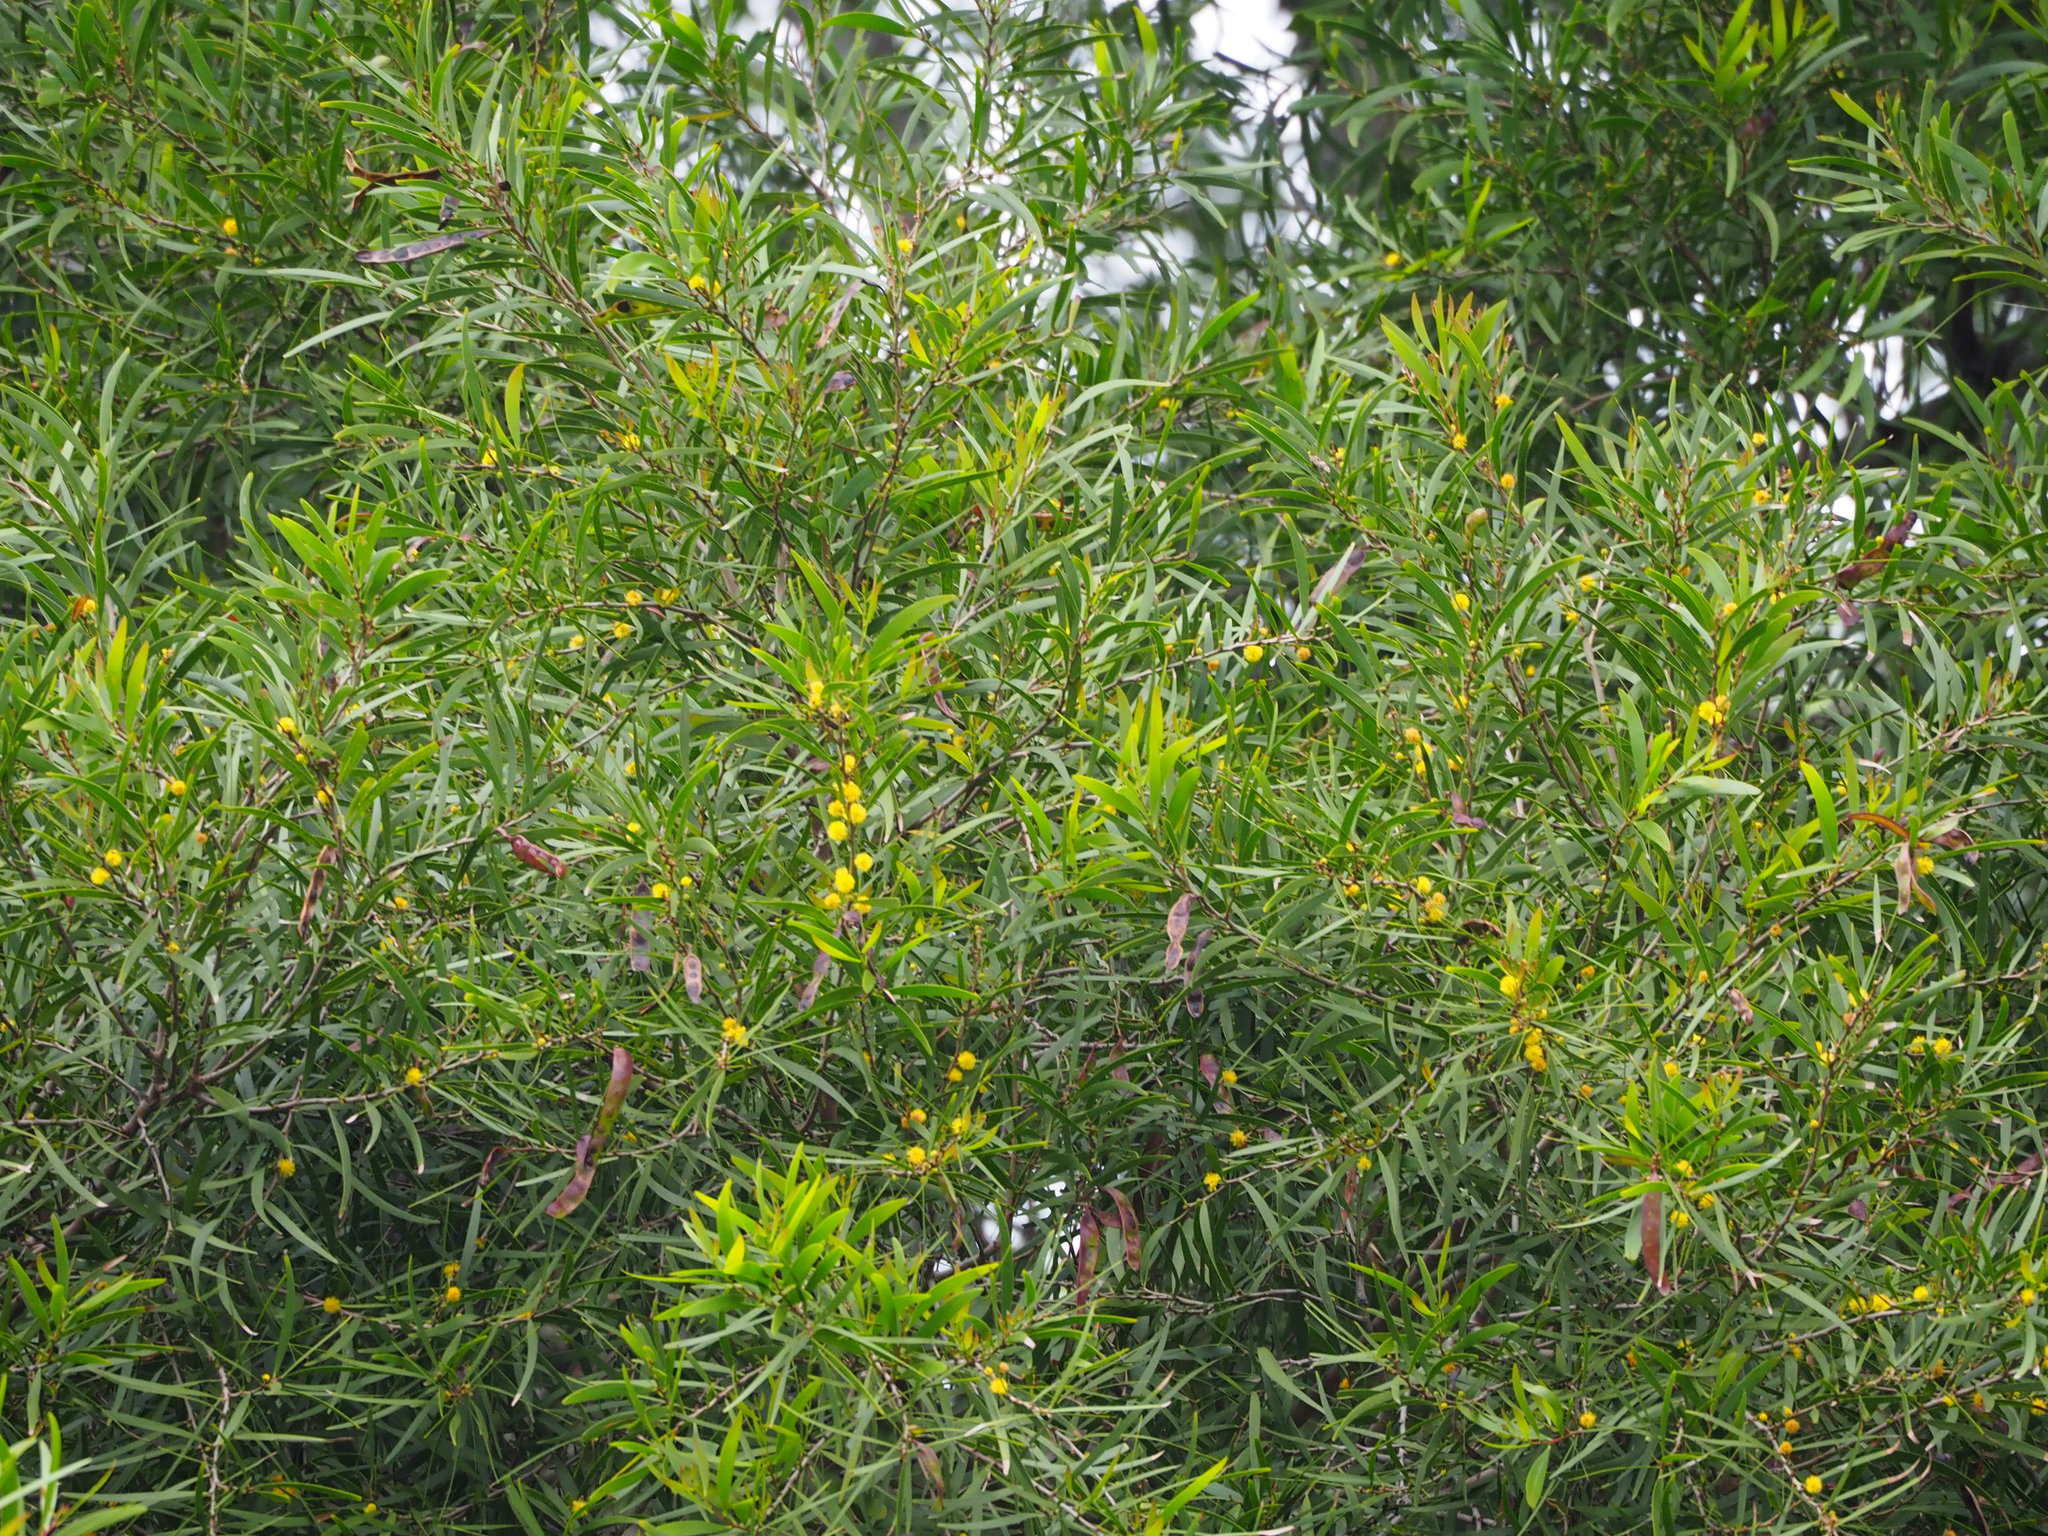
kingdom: Plantae
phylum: Tracheophyta
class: Magnoliopsida
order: Fabales
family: Fabaceae
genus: Acacia
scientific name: Acacia confusa
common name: Formosan koa
